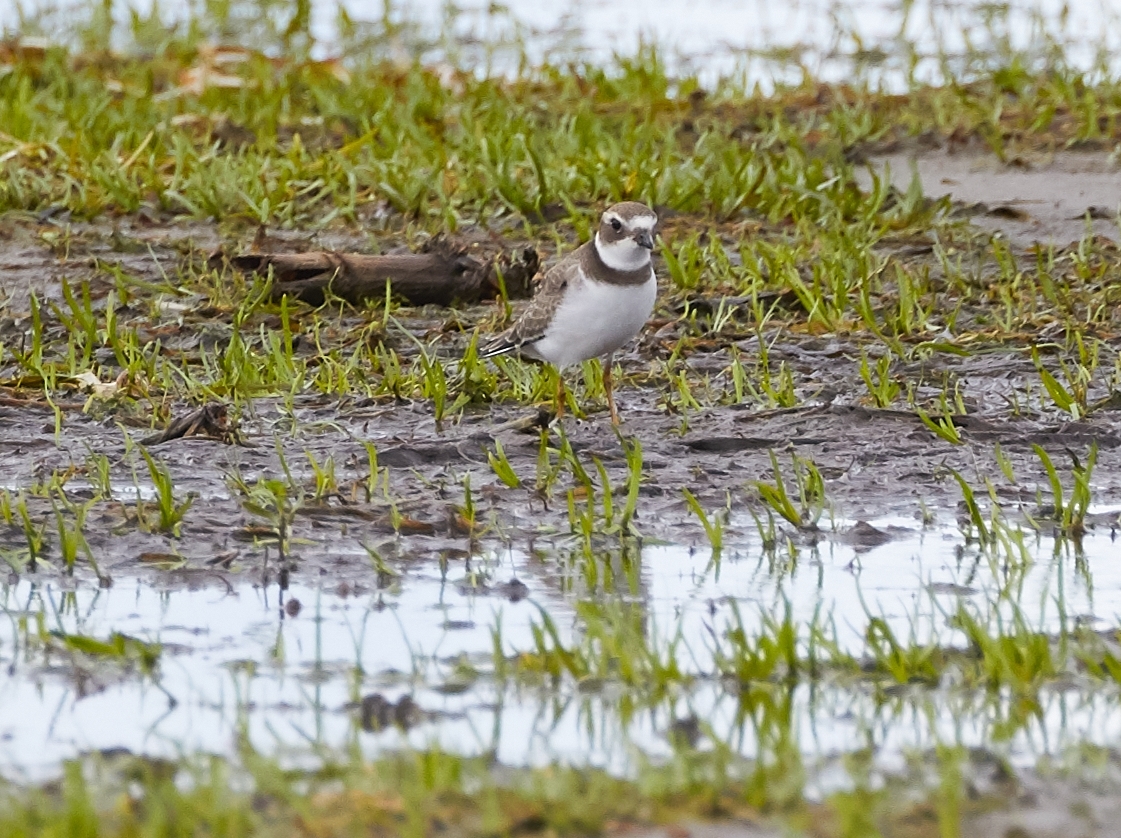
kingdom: Animalia
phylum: Chordata
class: Aves
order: Charadriiformes
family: Charadriidae
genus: Charadrius
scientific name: Charadrius semipalmatus
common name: Semipalmated plover
